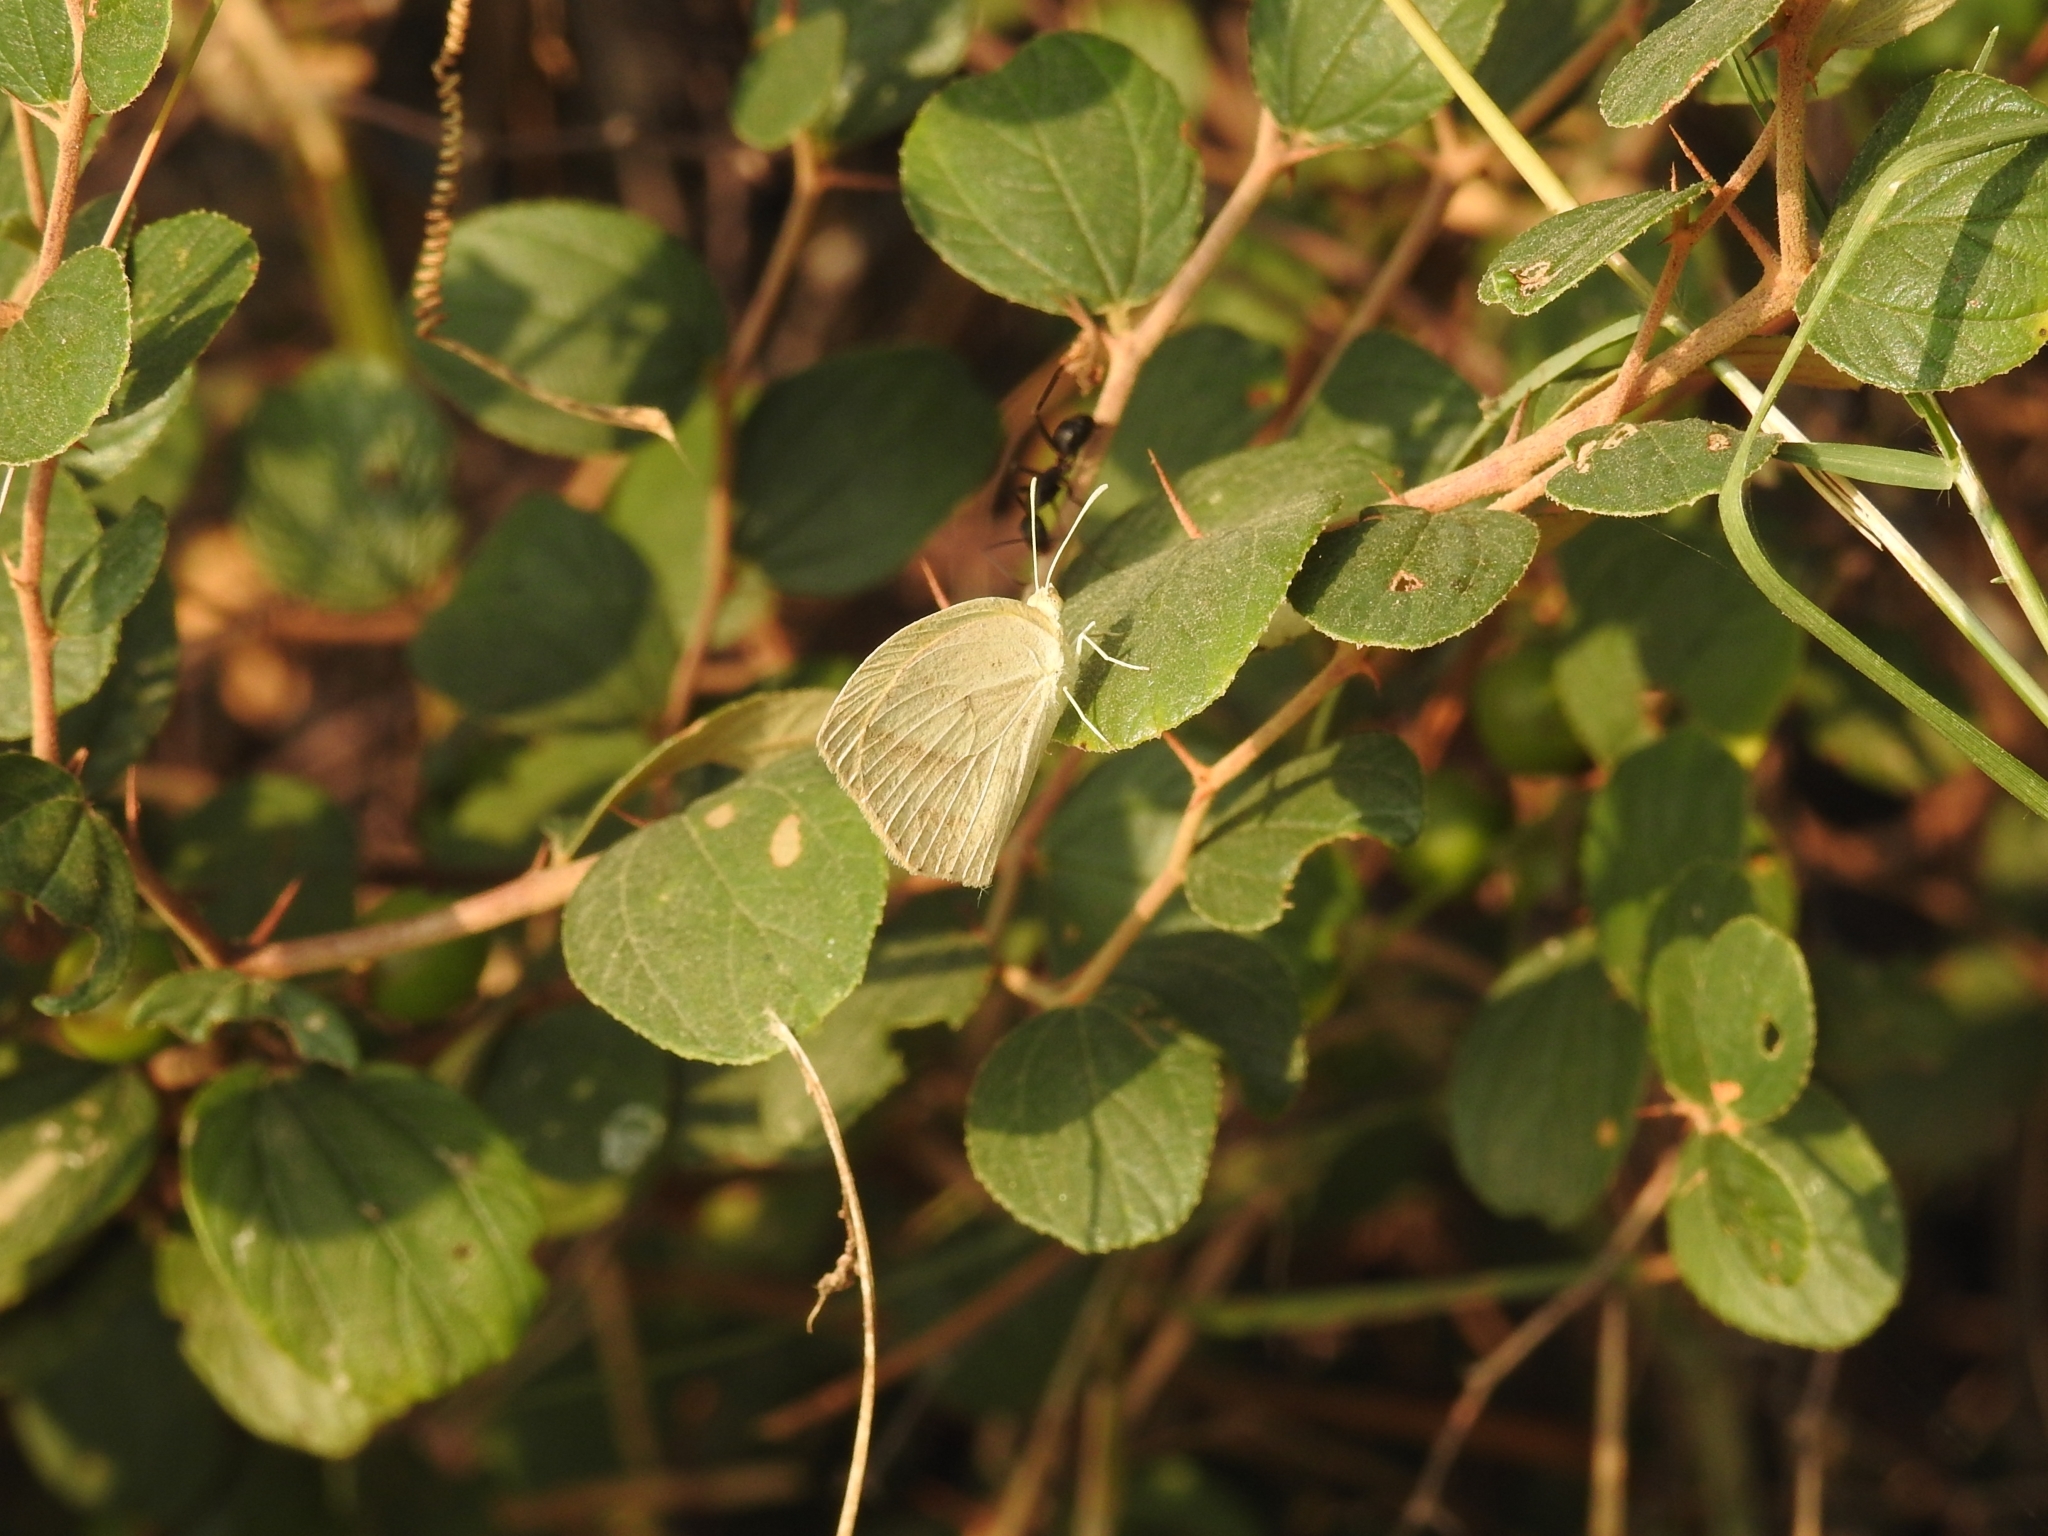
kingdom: Animalia
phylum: Arthropoda
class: Insecta
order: Lepidoptera
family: Pieridae
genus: Eurema
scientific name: Eurema laeta
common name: Spotless grass yellow
